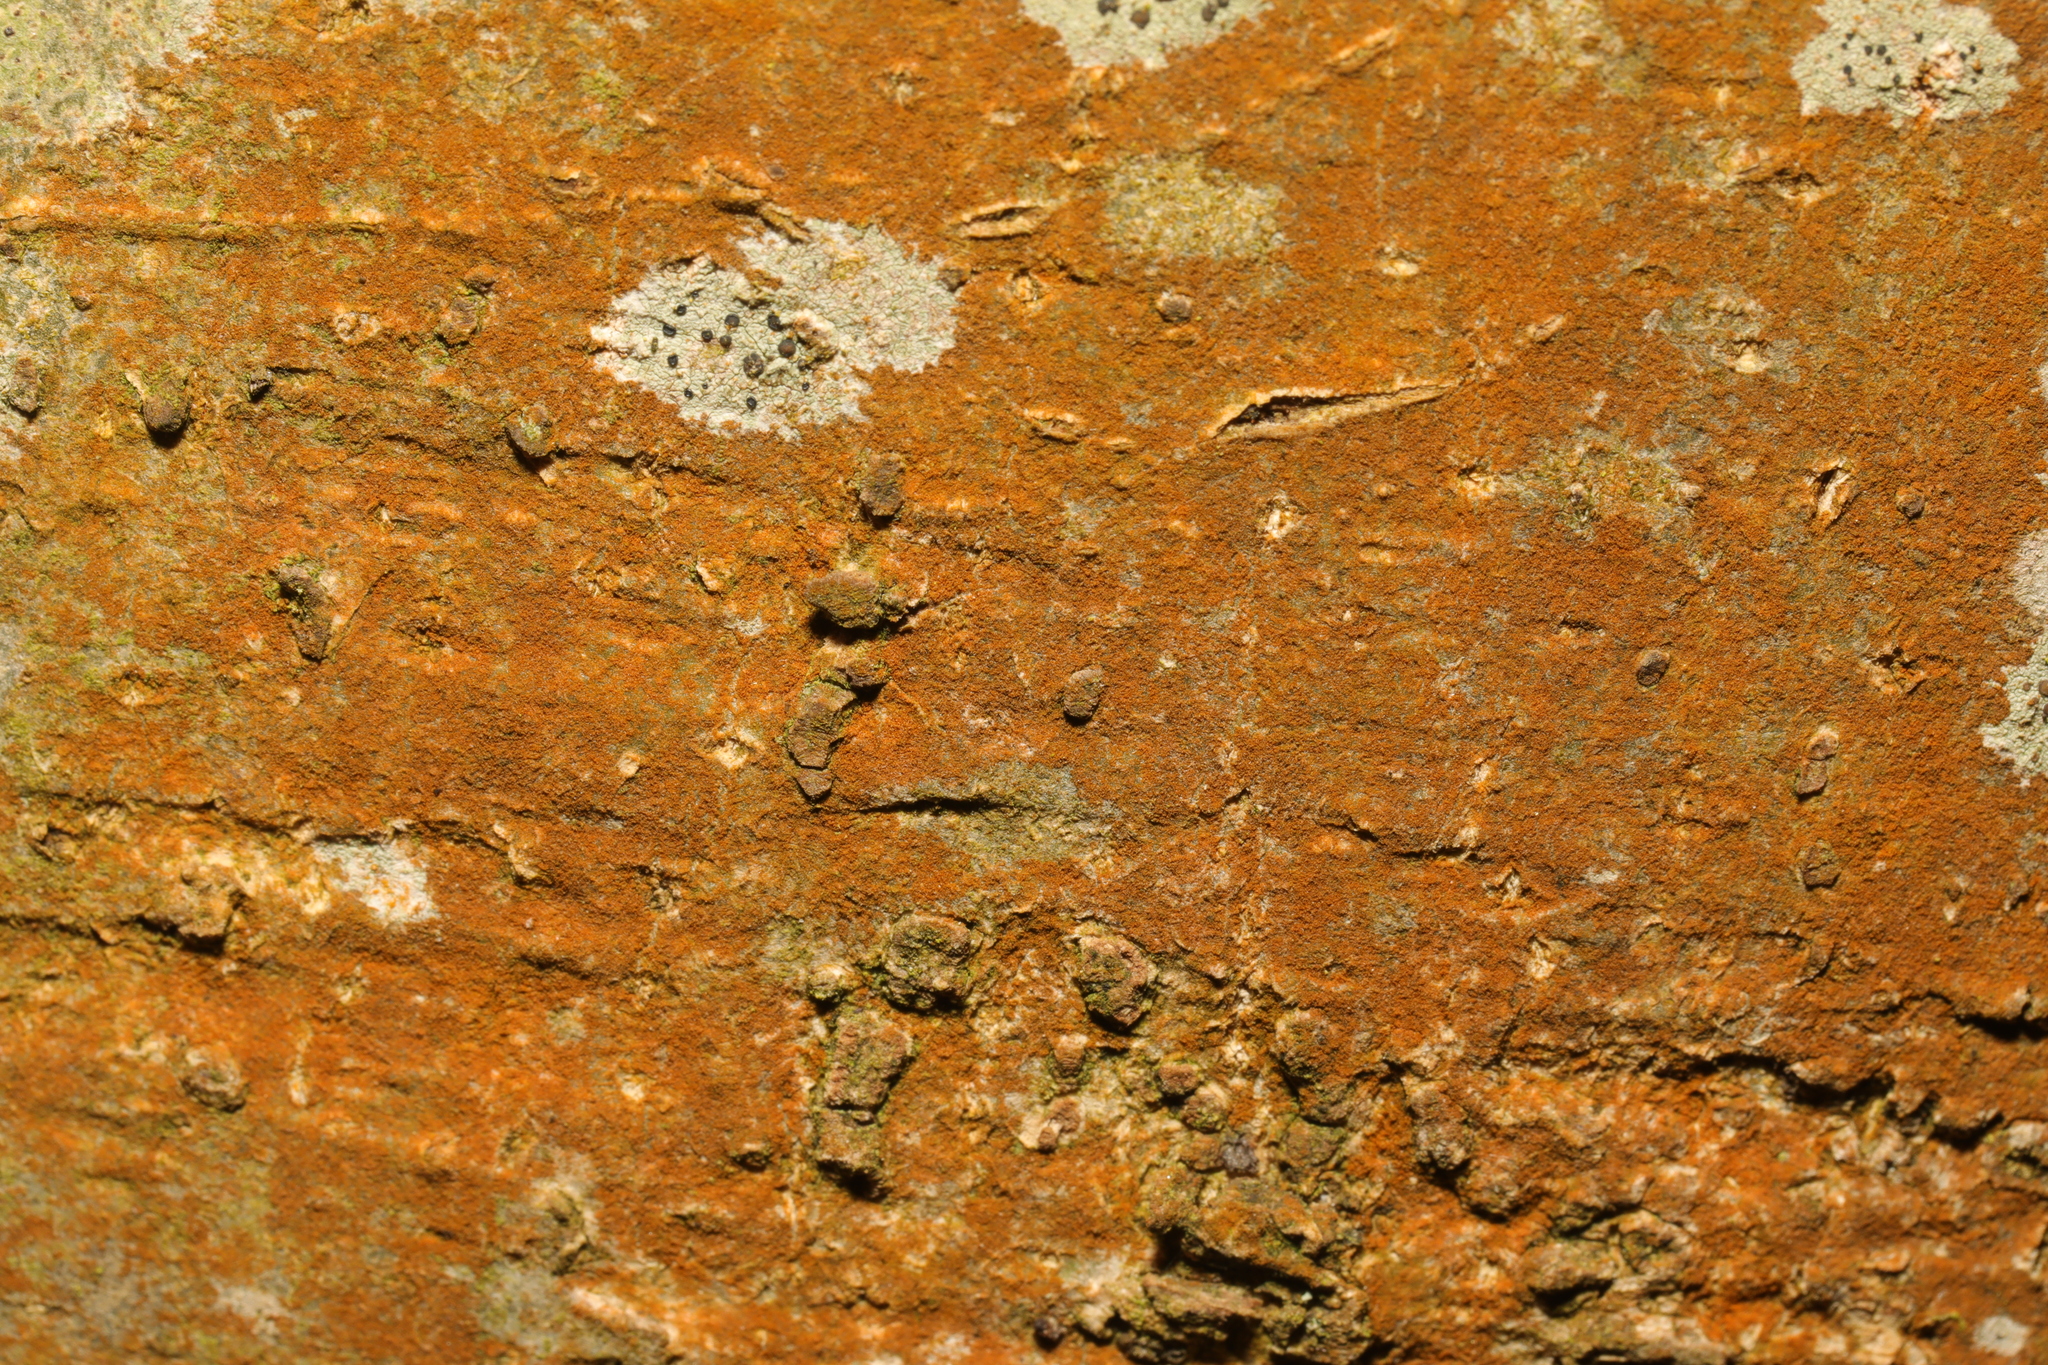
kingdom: Plantae
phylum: Chlorophyta
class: Ulvophyceae
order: Trentepohliales
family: Trentepohliaceae
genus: Trentepohlia
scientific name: Trentepohlia
